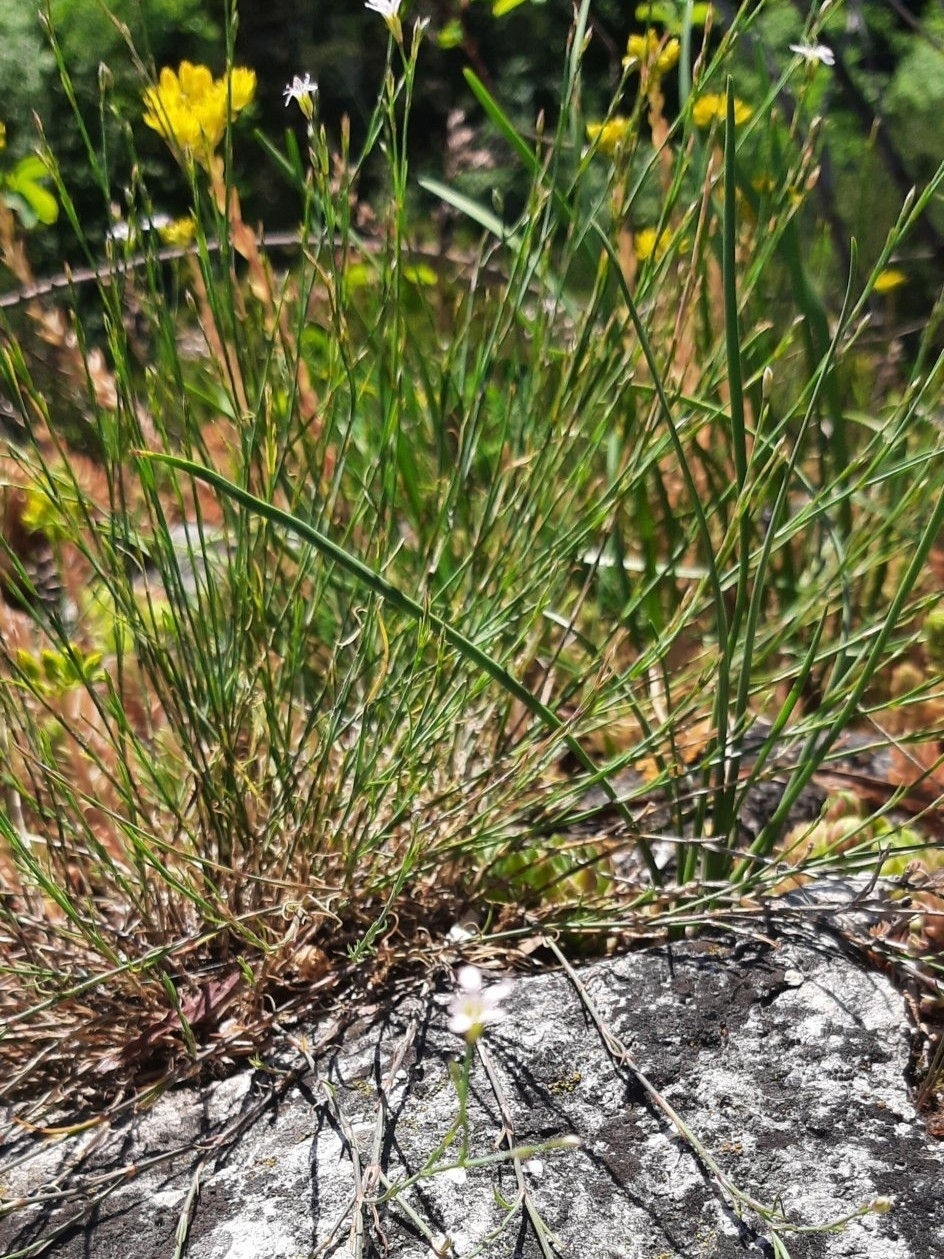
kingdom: Plantae
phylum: Tracheophyta
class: Magnoliopsida
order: Caryophyllales
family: Caryophyllaceae
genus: Petrorhagia
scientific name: Petrorhagia saxifraga
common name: Tunicflower
